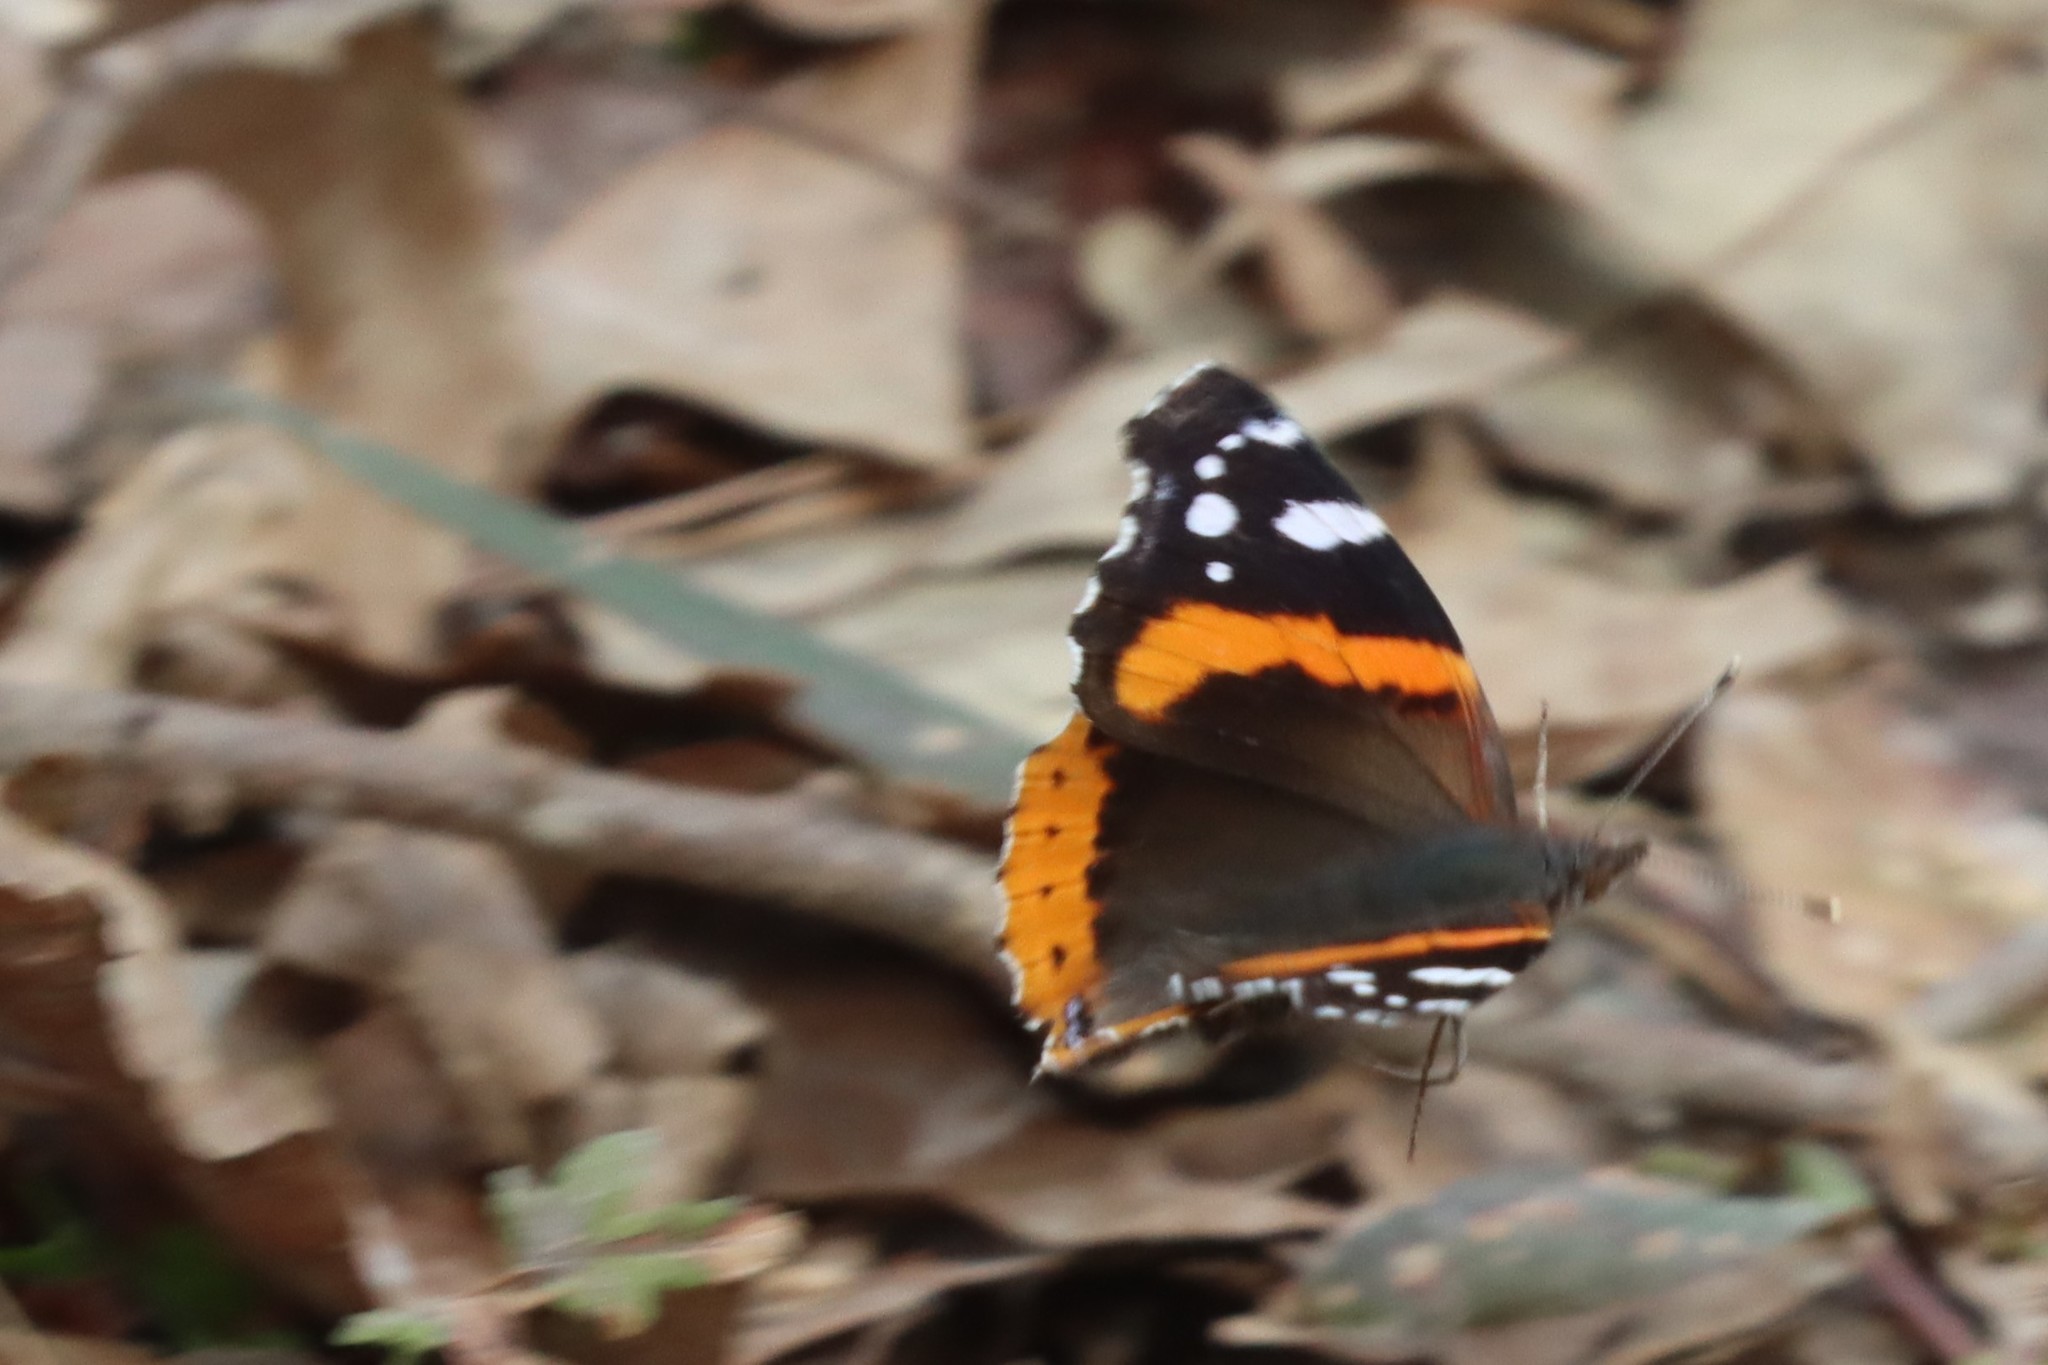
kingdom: Animalia
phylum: Arthropoda
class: Insecta
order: Lepidoptera
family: Nymphalidae
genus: Vanessa
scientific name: Vanessa atalanta
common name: Red admiral
